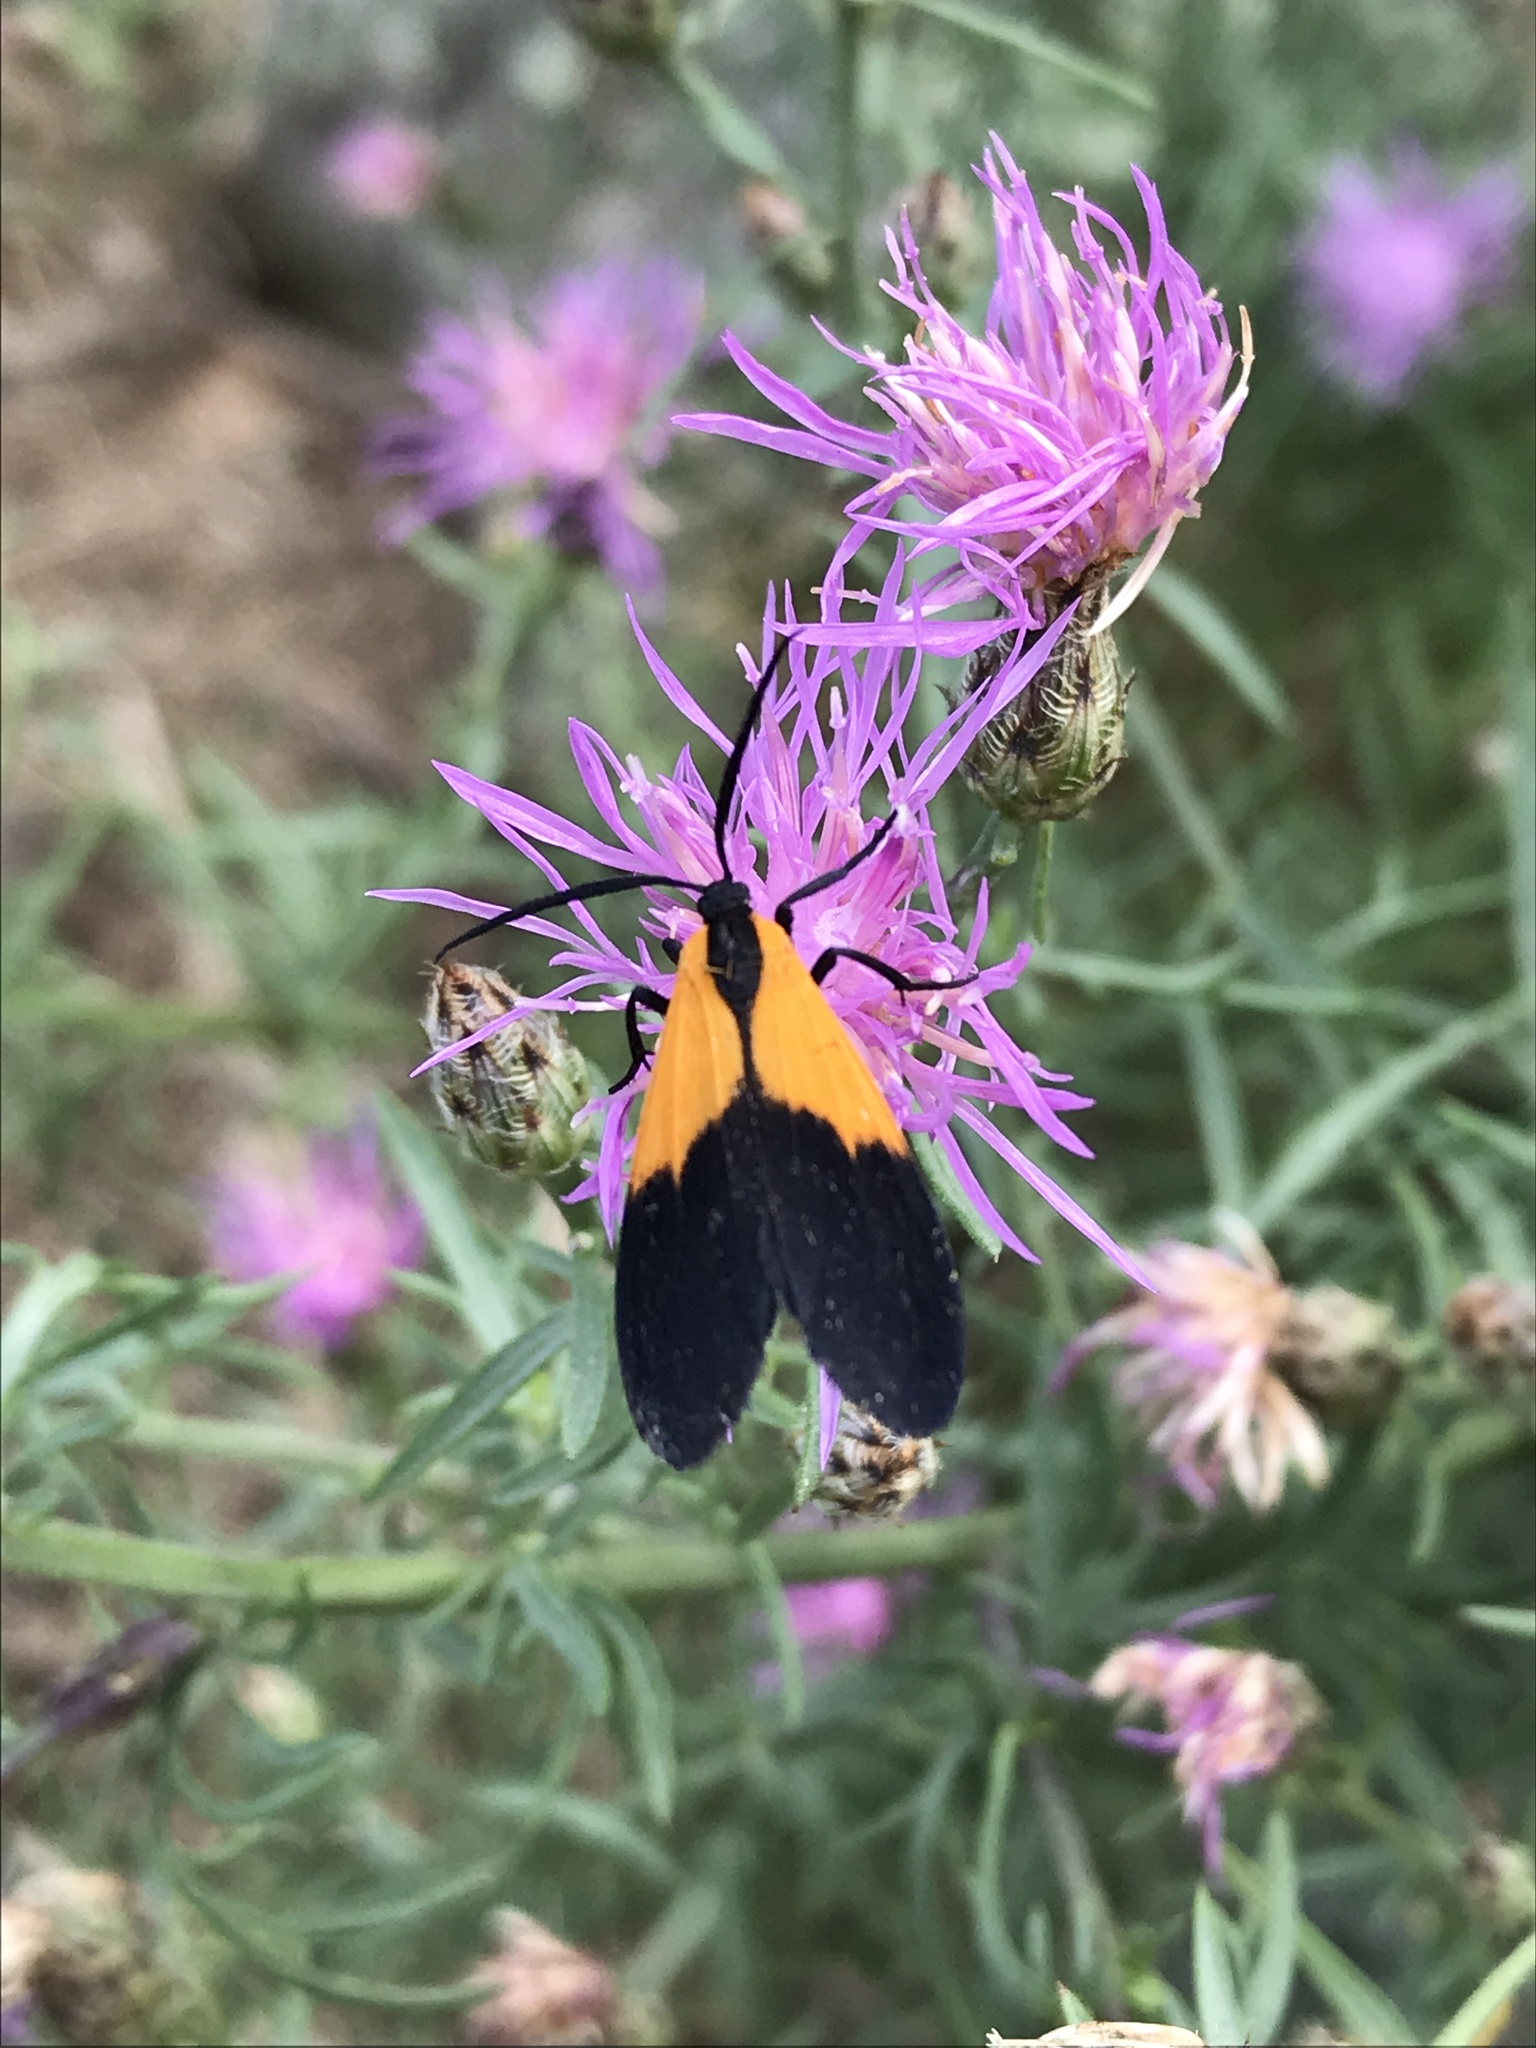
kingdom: Animalia
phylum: Arthropoda
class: Insecta
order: Lepidoptera
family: Erebidae
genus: Lycomorpha
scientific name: Lycomorpha pholus
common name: Black-and-yellow lichen moth
